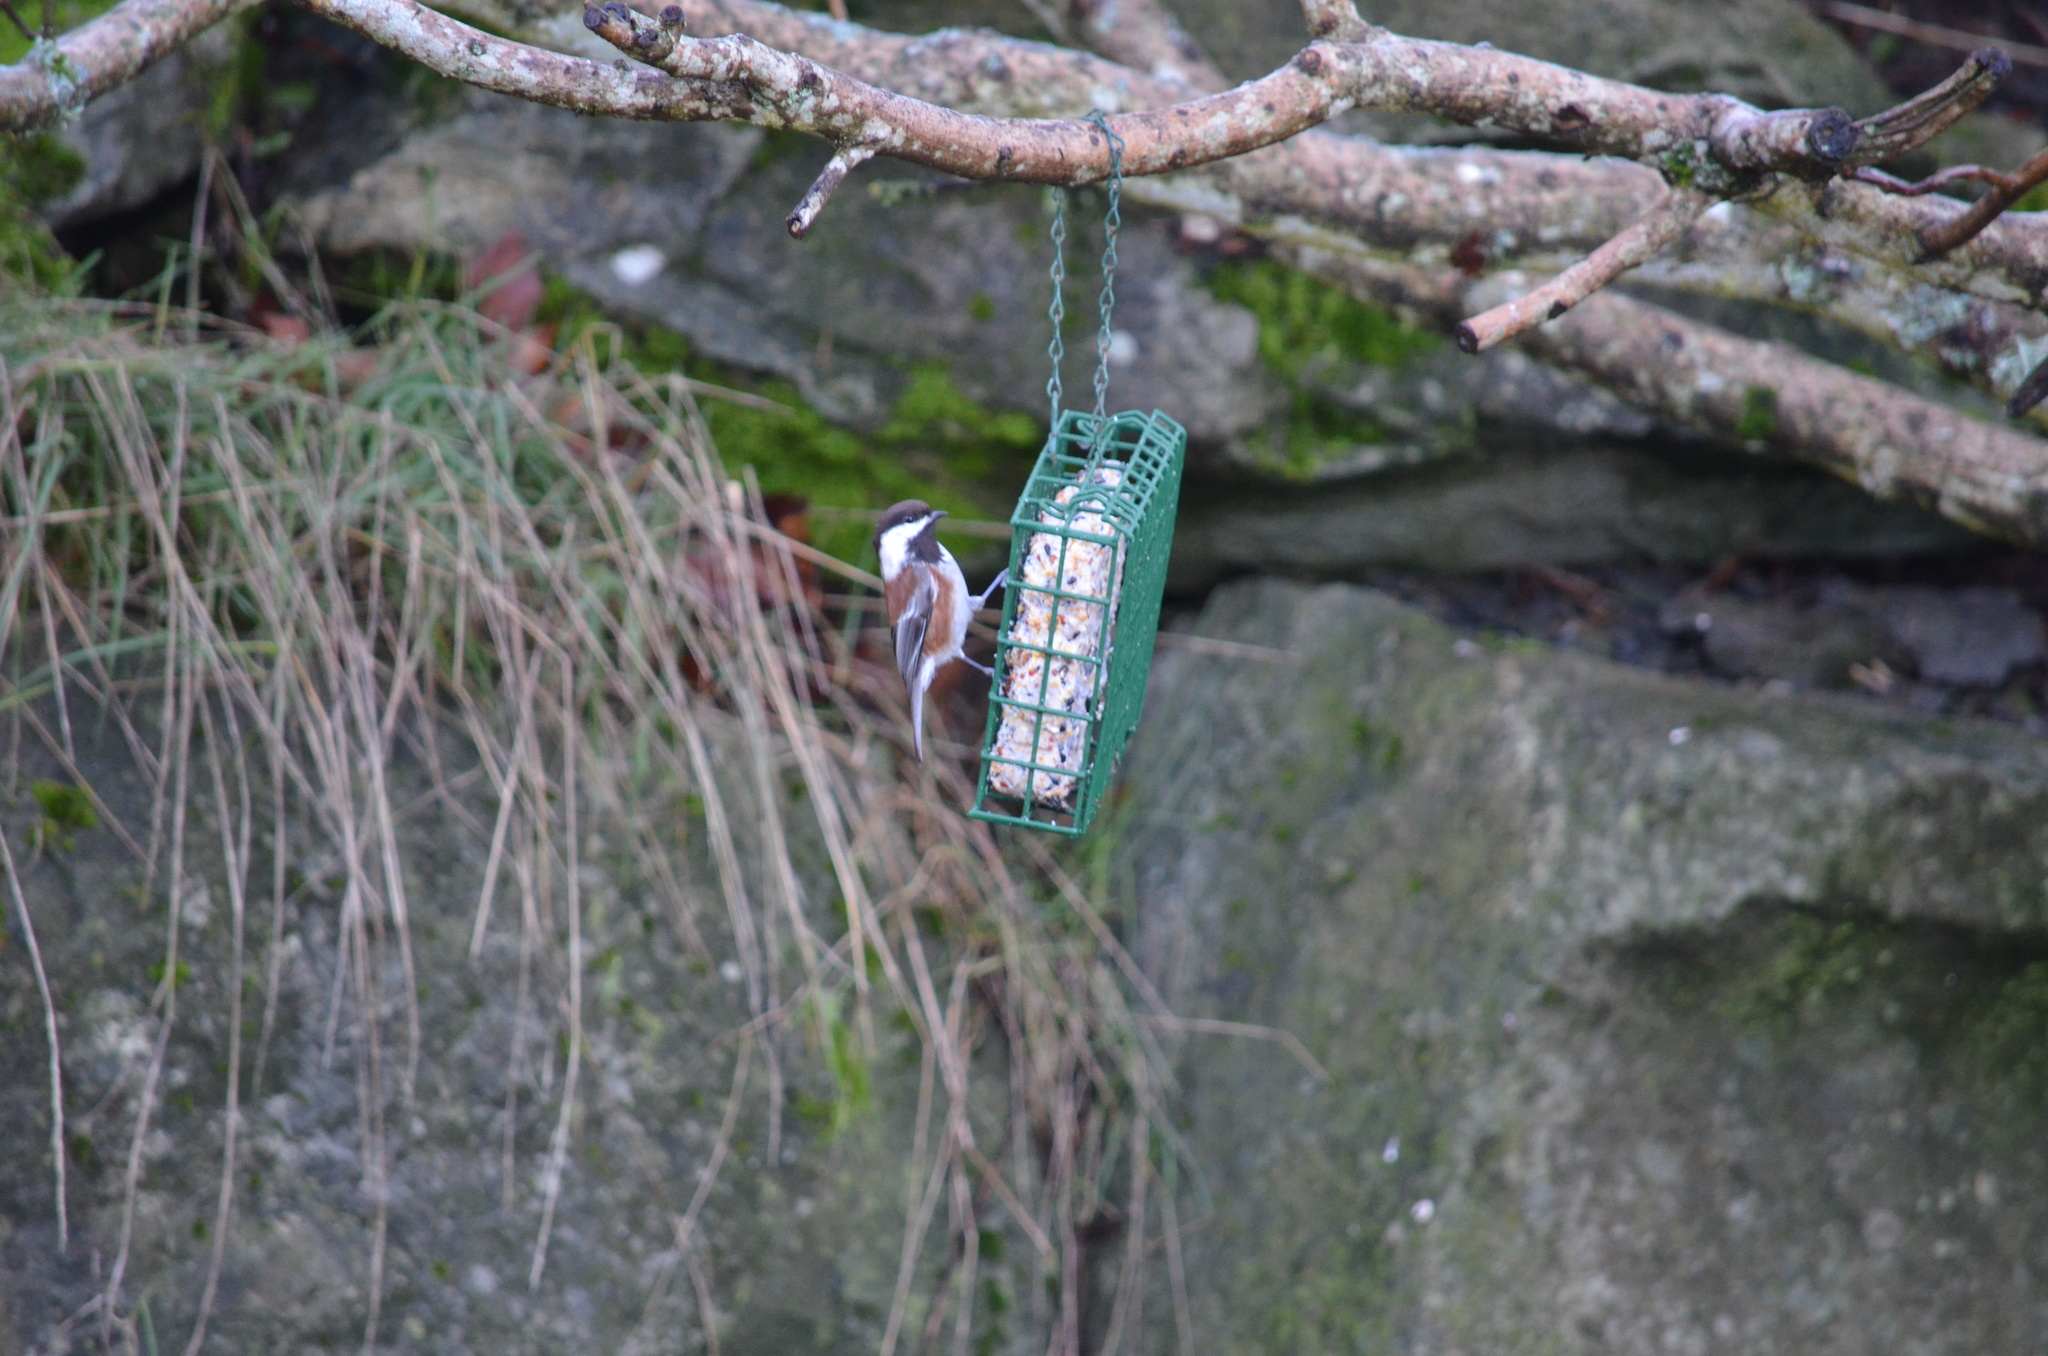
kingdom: Animalia
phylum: Chordata
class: Aves
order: Passeriformes
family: Paridae
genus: Poecile
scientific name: Poecile rufescens
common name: Chestnut-backed chickadee
